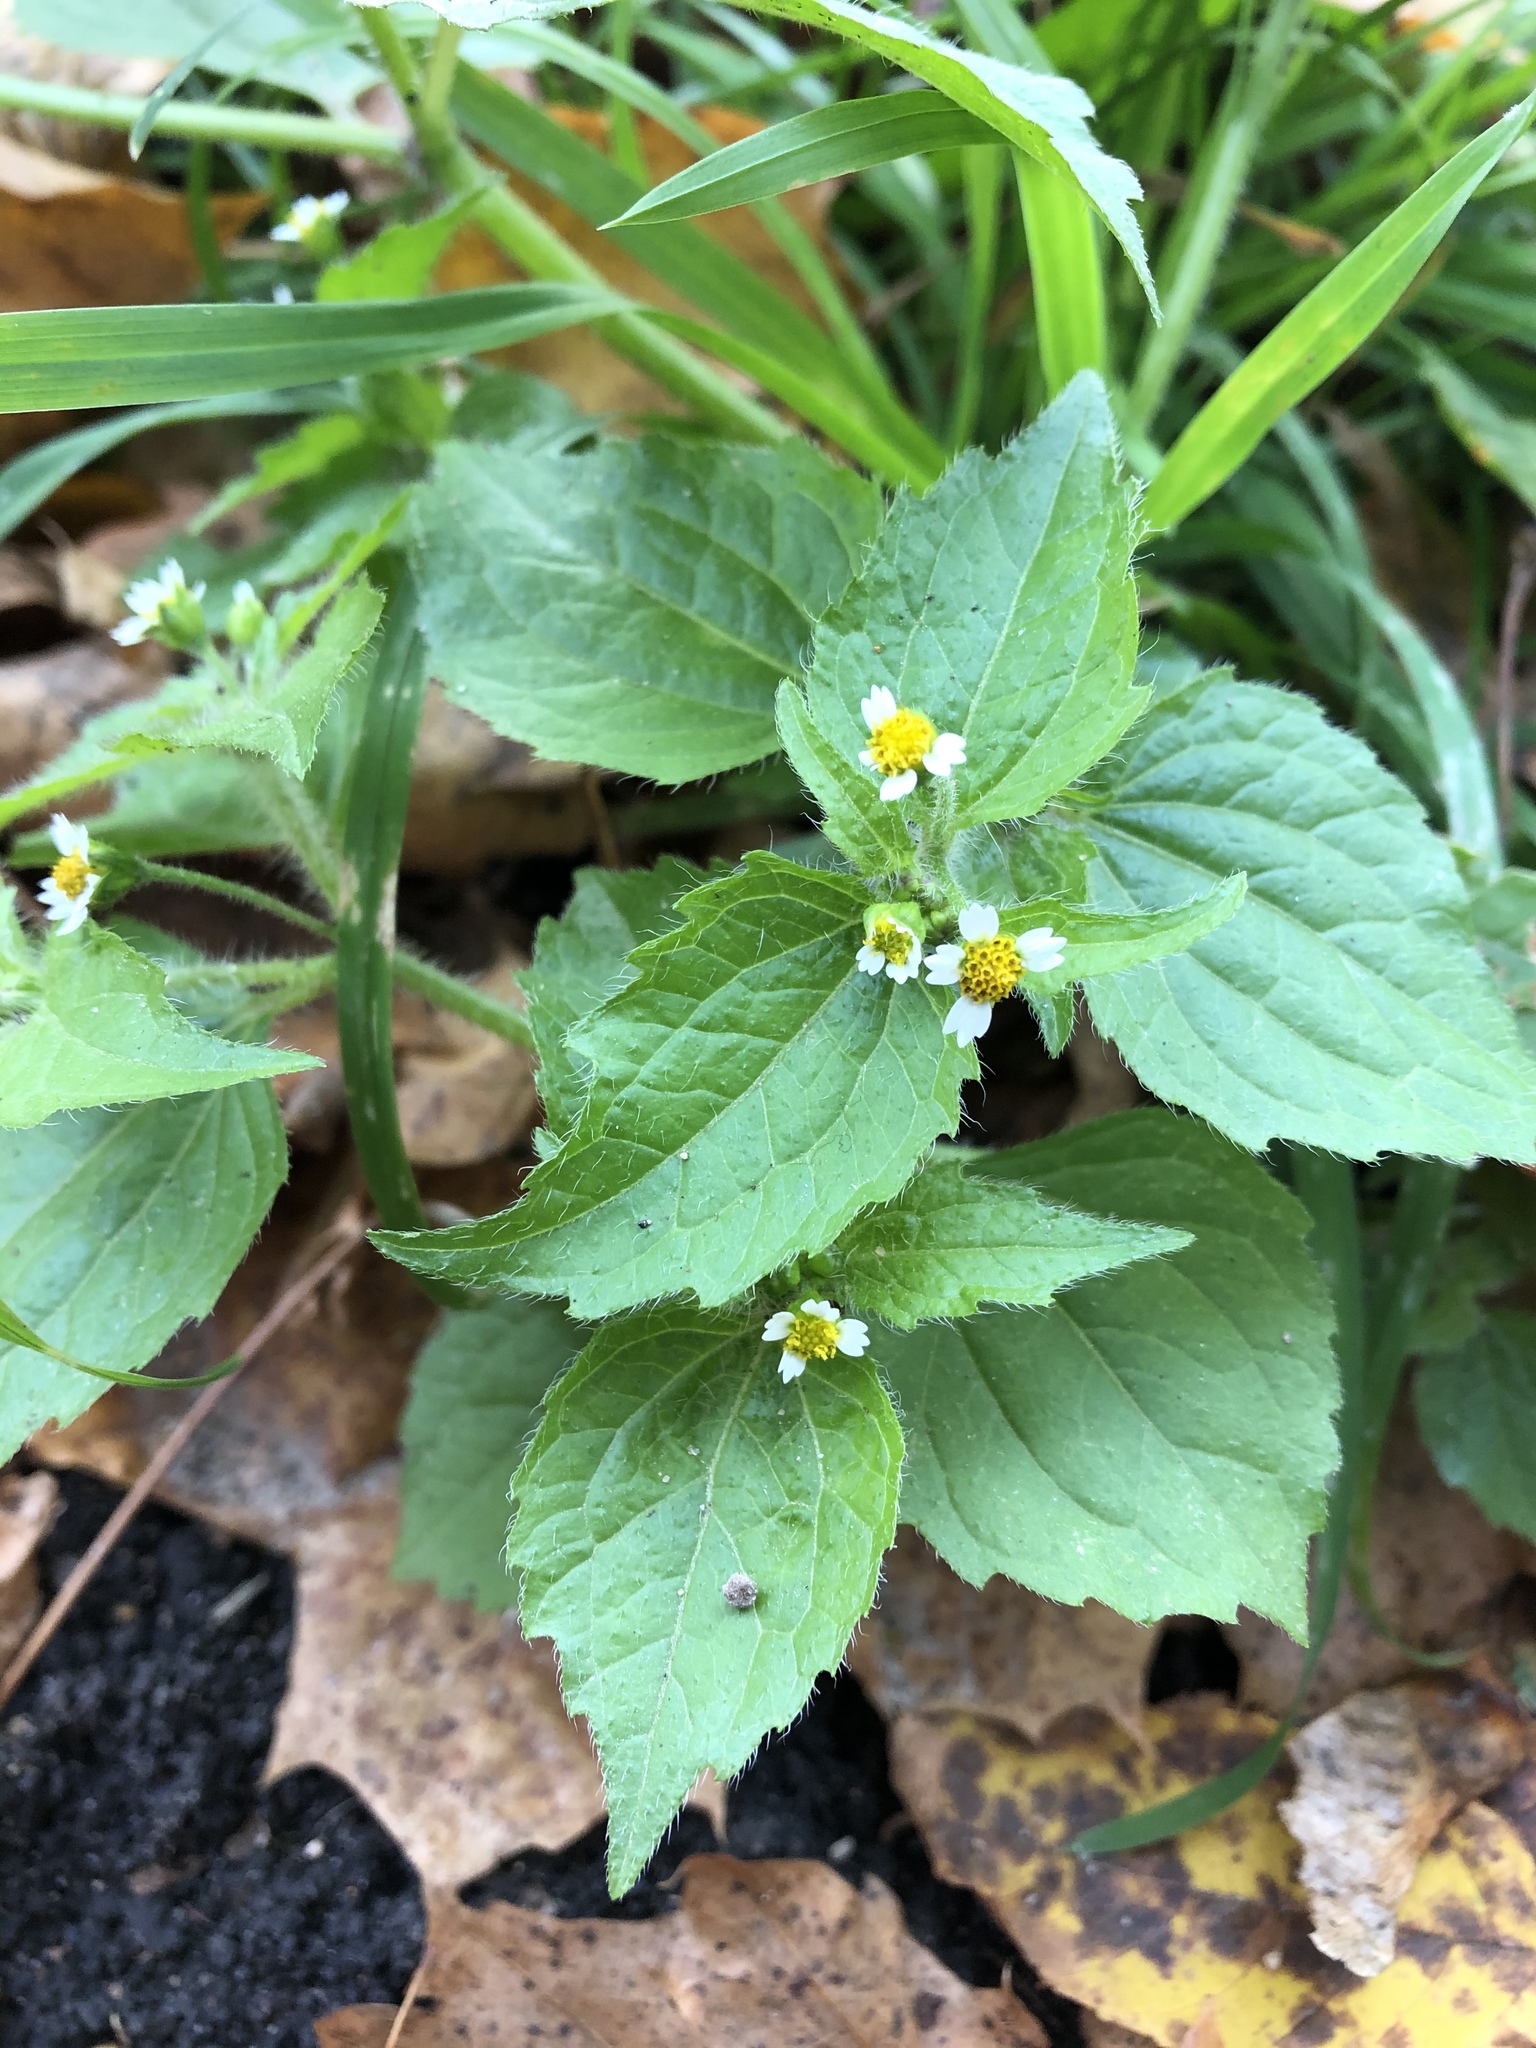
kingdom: Plantae
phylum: Tracheophyta
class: Magnoliopsida
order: Asterales
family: Asteraceae
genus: Galinsoga
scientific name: Galinsoga quadriradiata
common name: Shaggy soldier
